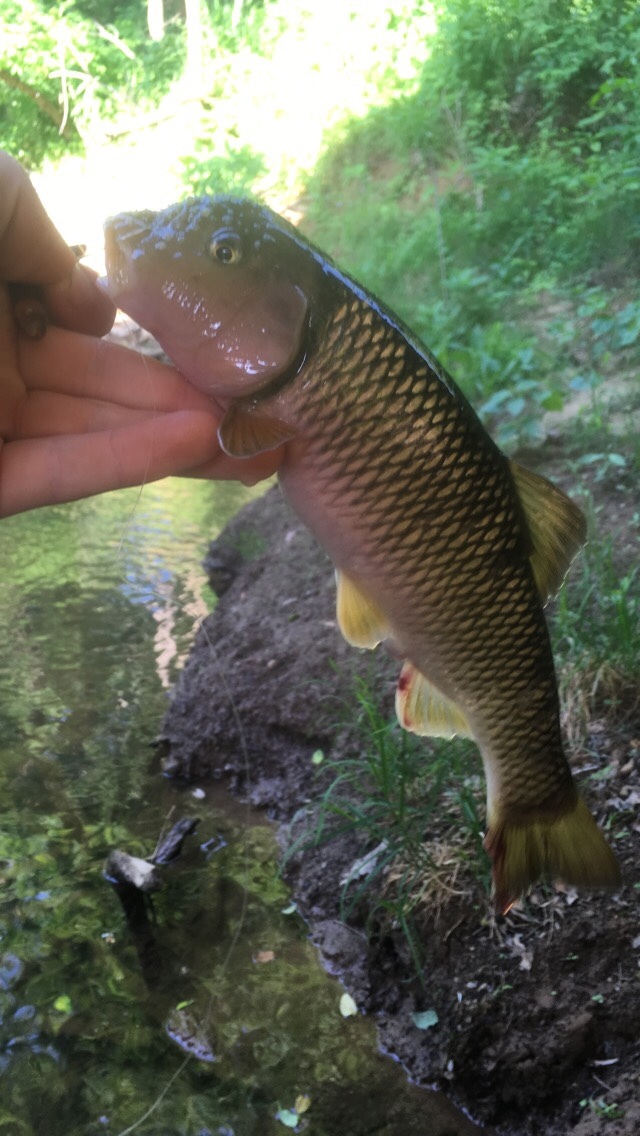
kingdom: Animalia
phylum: Chordata
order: Cypriniformes
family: Cyprinidae
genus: Nocomis
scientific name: Nocomis raneyi
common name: Bull chub
